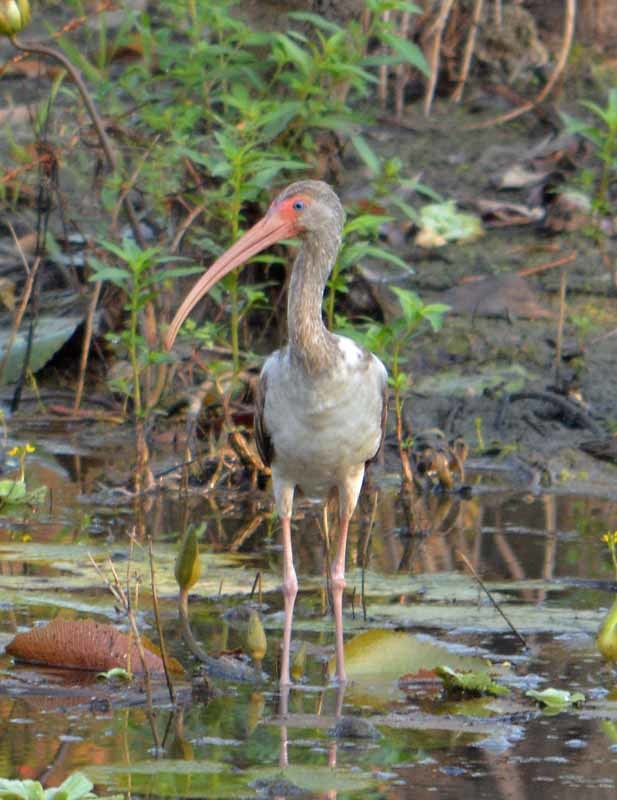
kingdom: Animalia
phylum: Chordata
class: Aves
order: Pelecaniformes
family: Threskiornithidae
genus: Eudocimus
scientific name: Eudocimus albus
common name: White ibis
